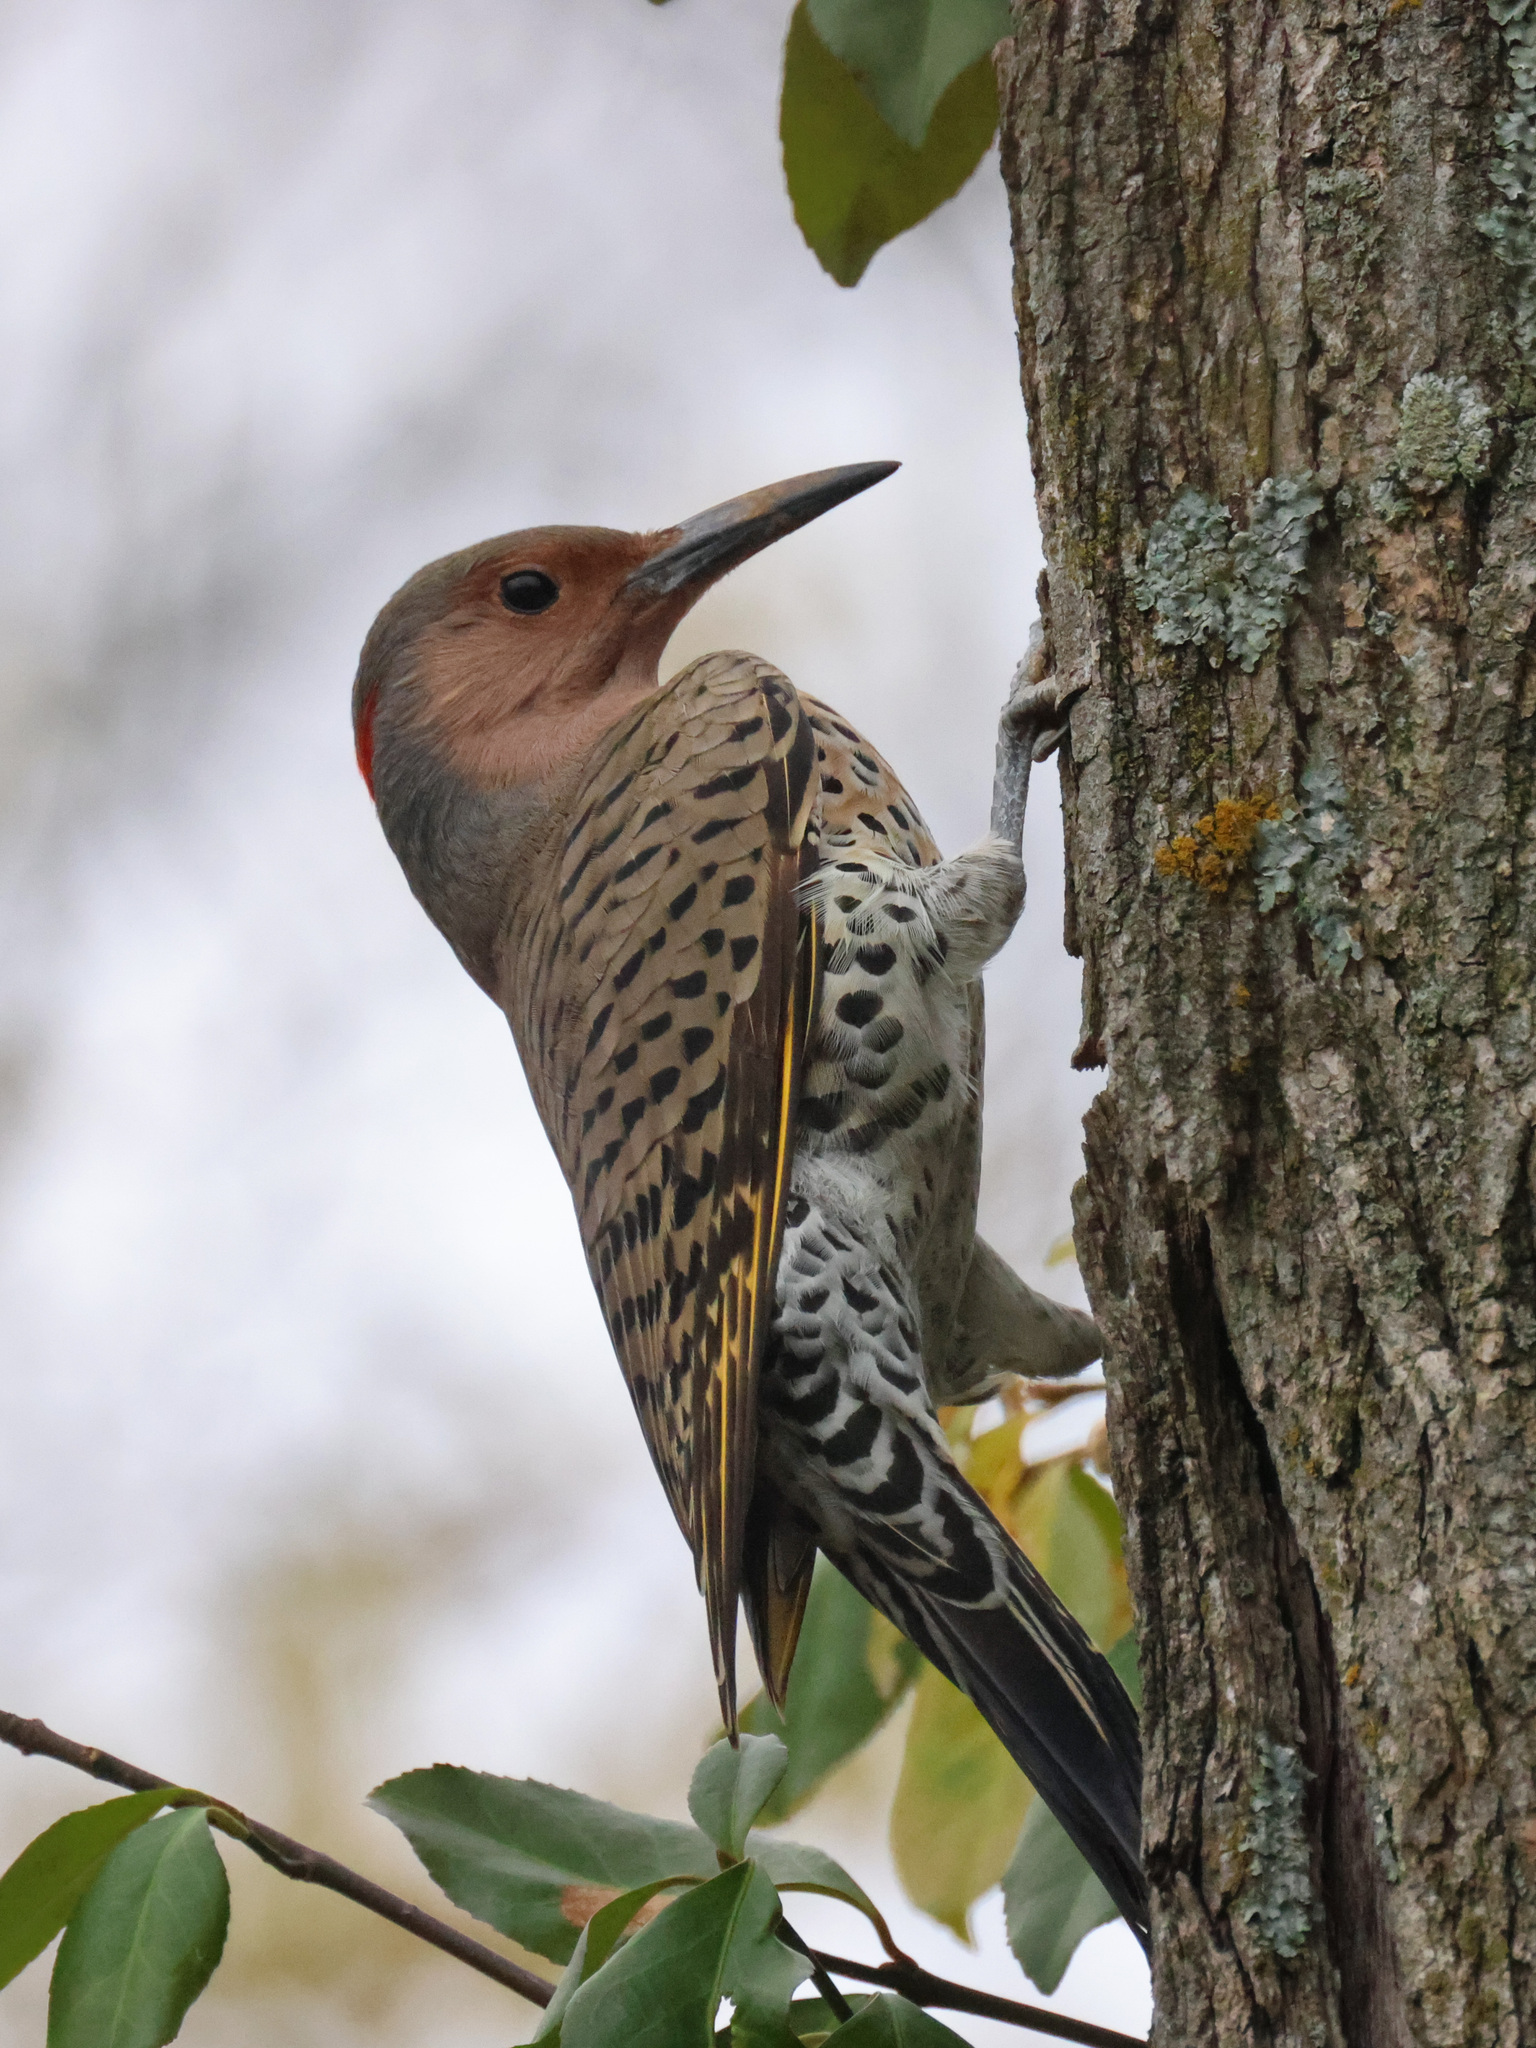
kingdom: Animalia
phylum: Chordata
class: Aves
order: Piciformes
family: Picidae
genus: Colaptes
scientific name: Colaptes auratus
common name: Northern flicker
